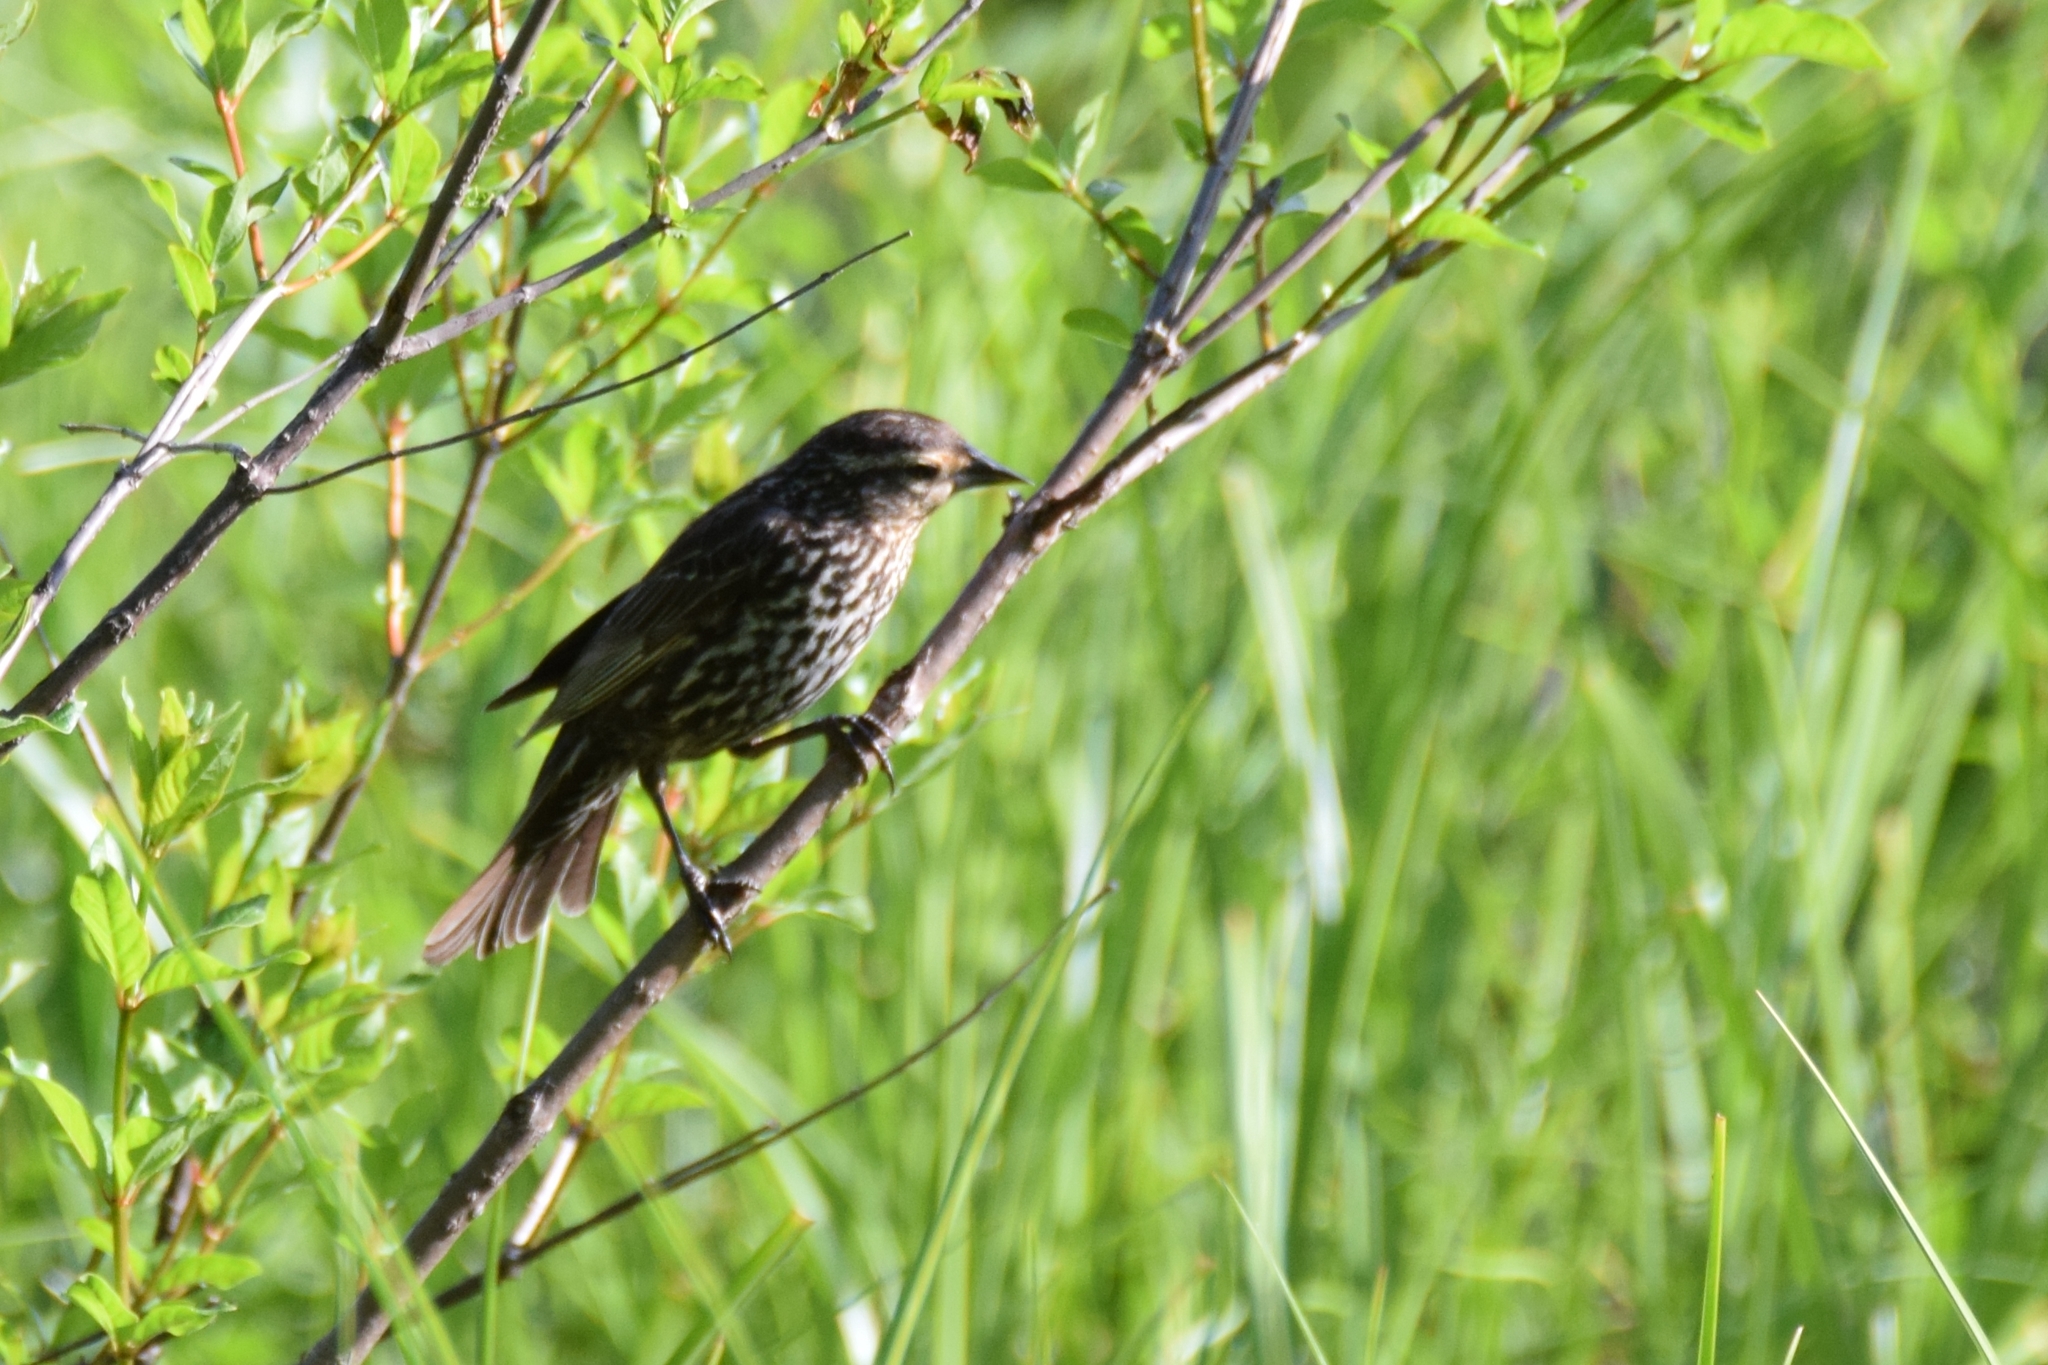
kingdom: Animalia
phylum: Chordata
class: Aves
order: Passeriformes
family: Icteridae
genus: Agelaius
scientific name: Agelaius phoeniceus
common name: Red-winged blackbird
